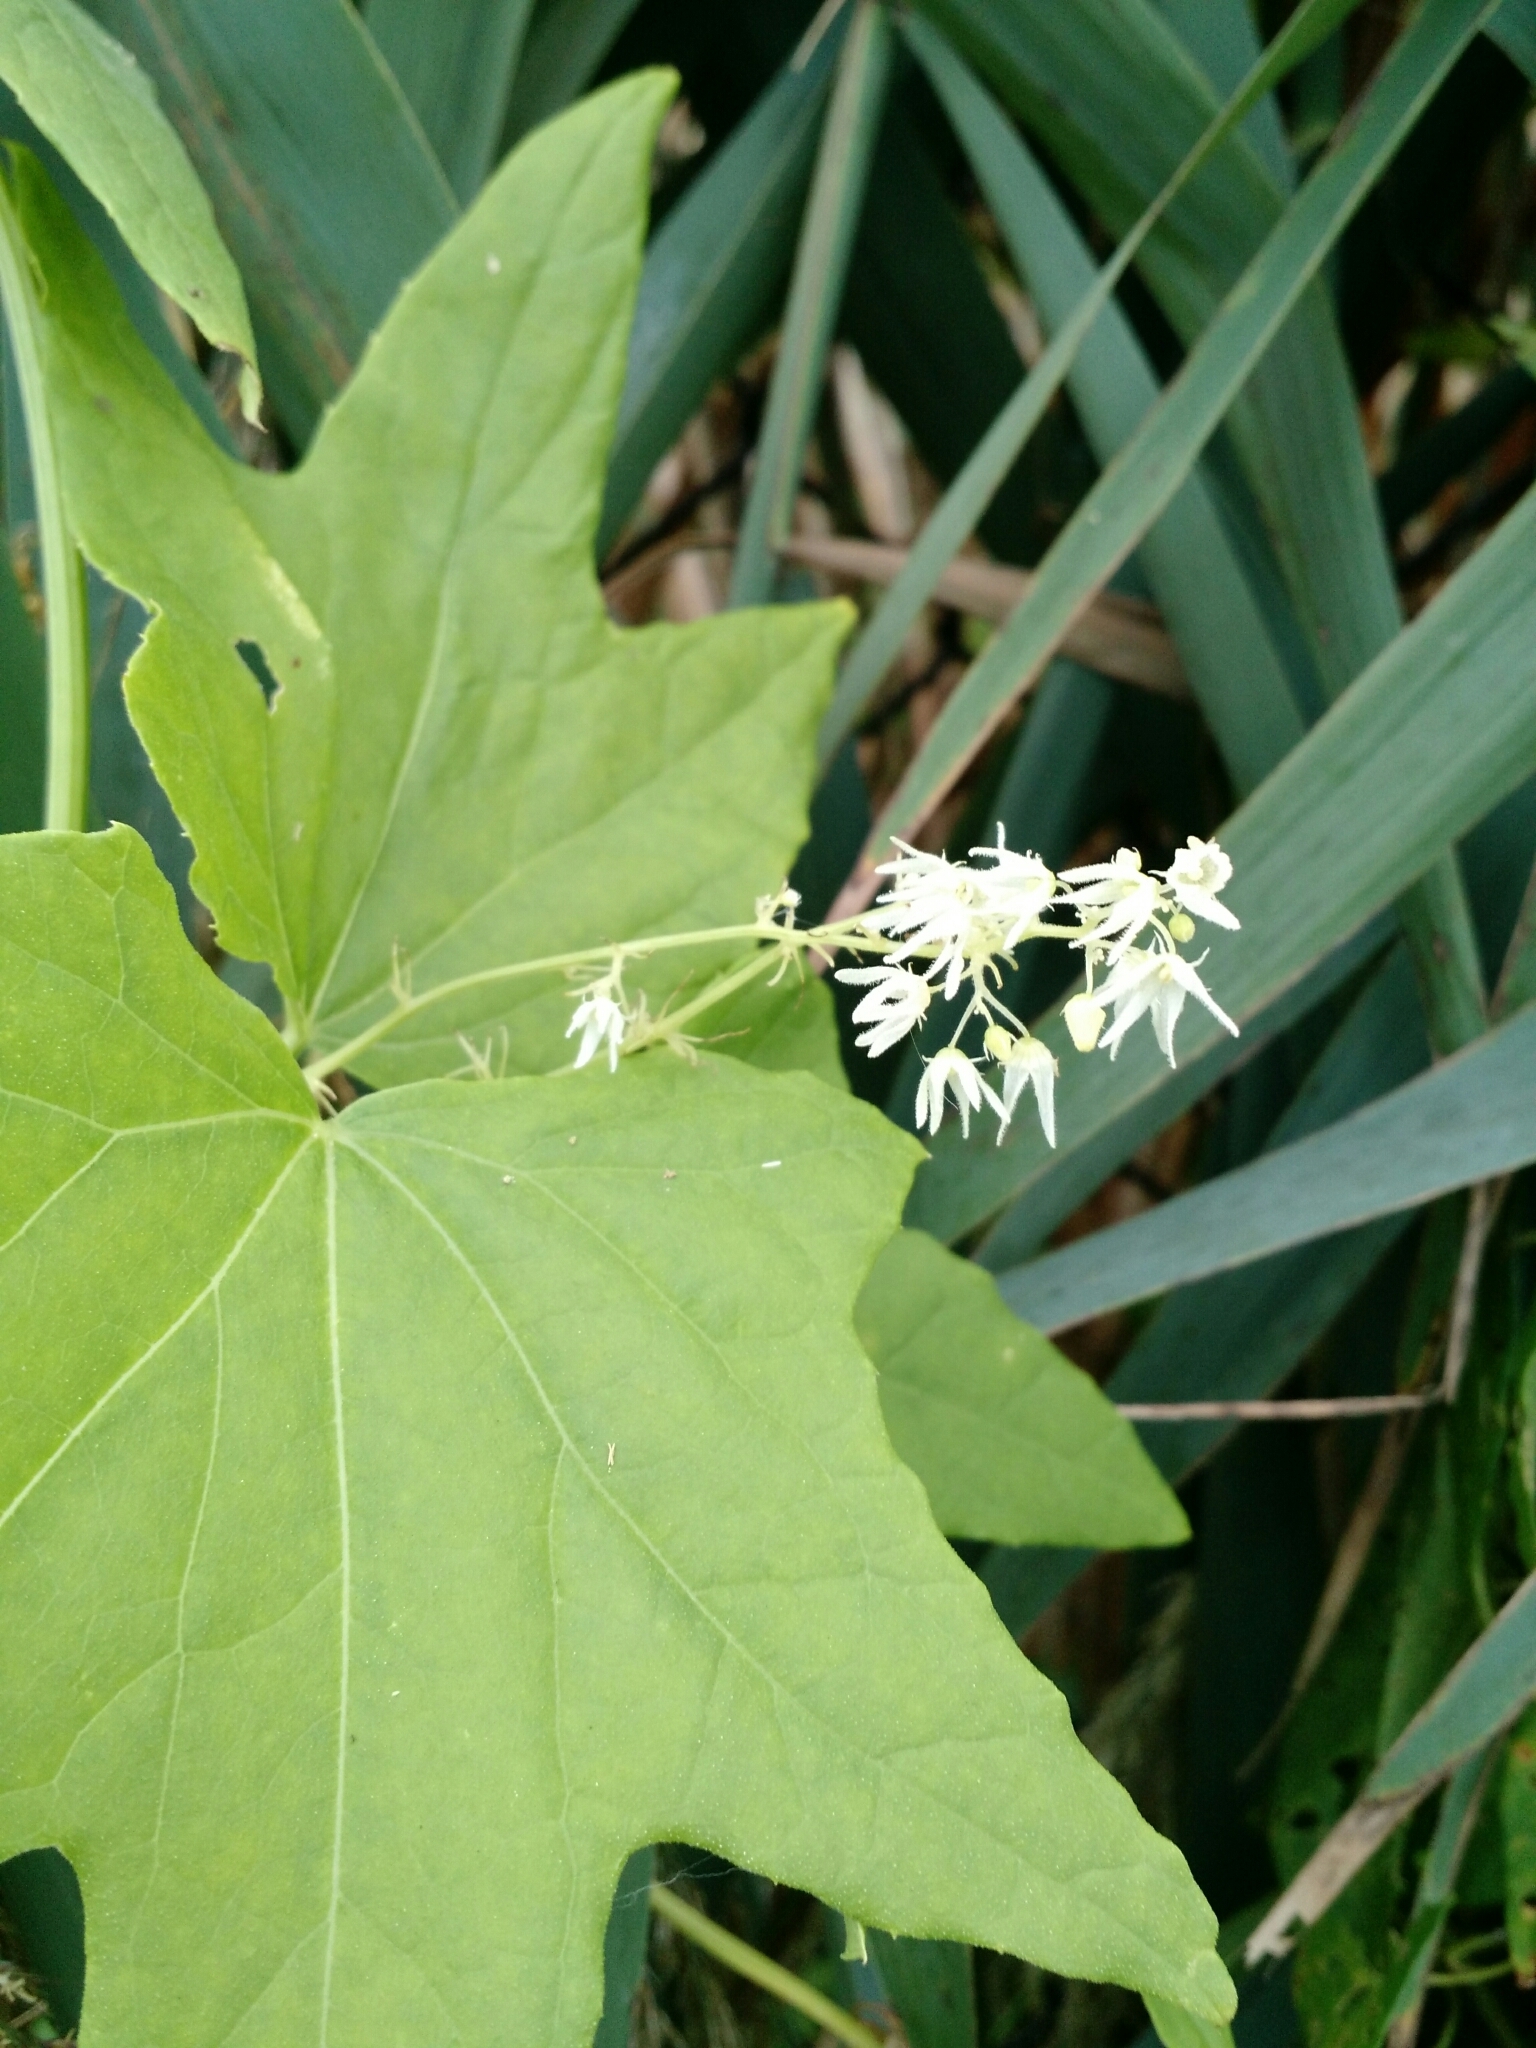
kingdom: Plantae
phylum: Tracheophyta
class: Magnoliopsida
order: Cucurbitales
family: Cucurbitaceae
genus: Echinocystis
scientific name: Echinocystis lobata
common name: Wild cucumber
